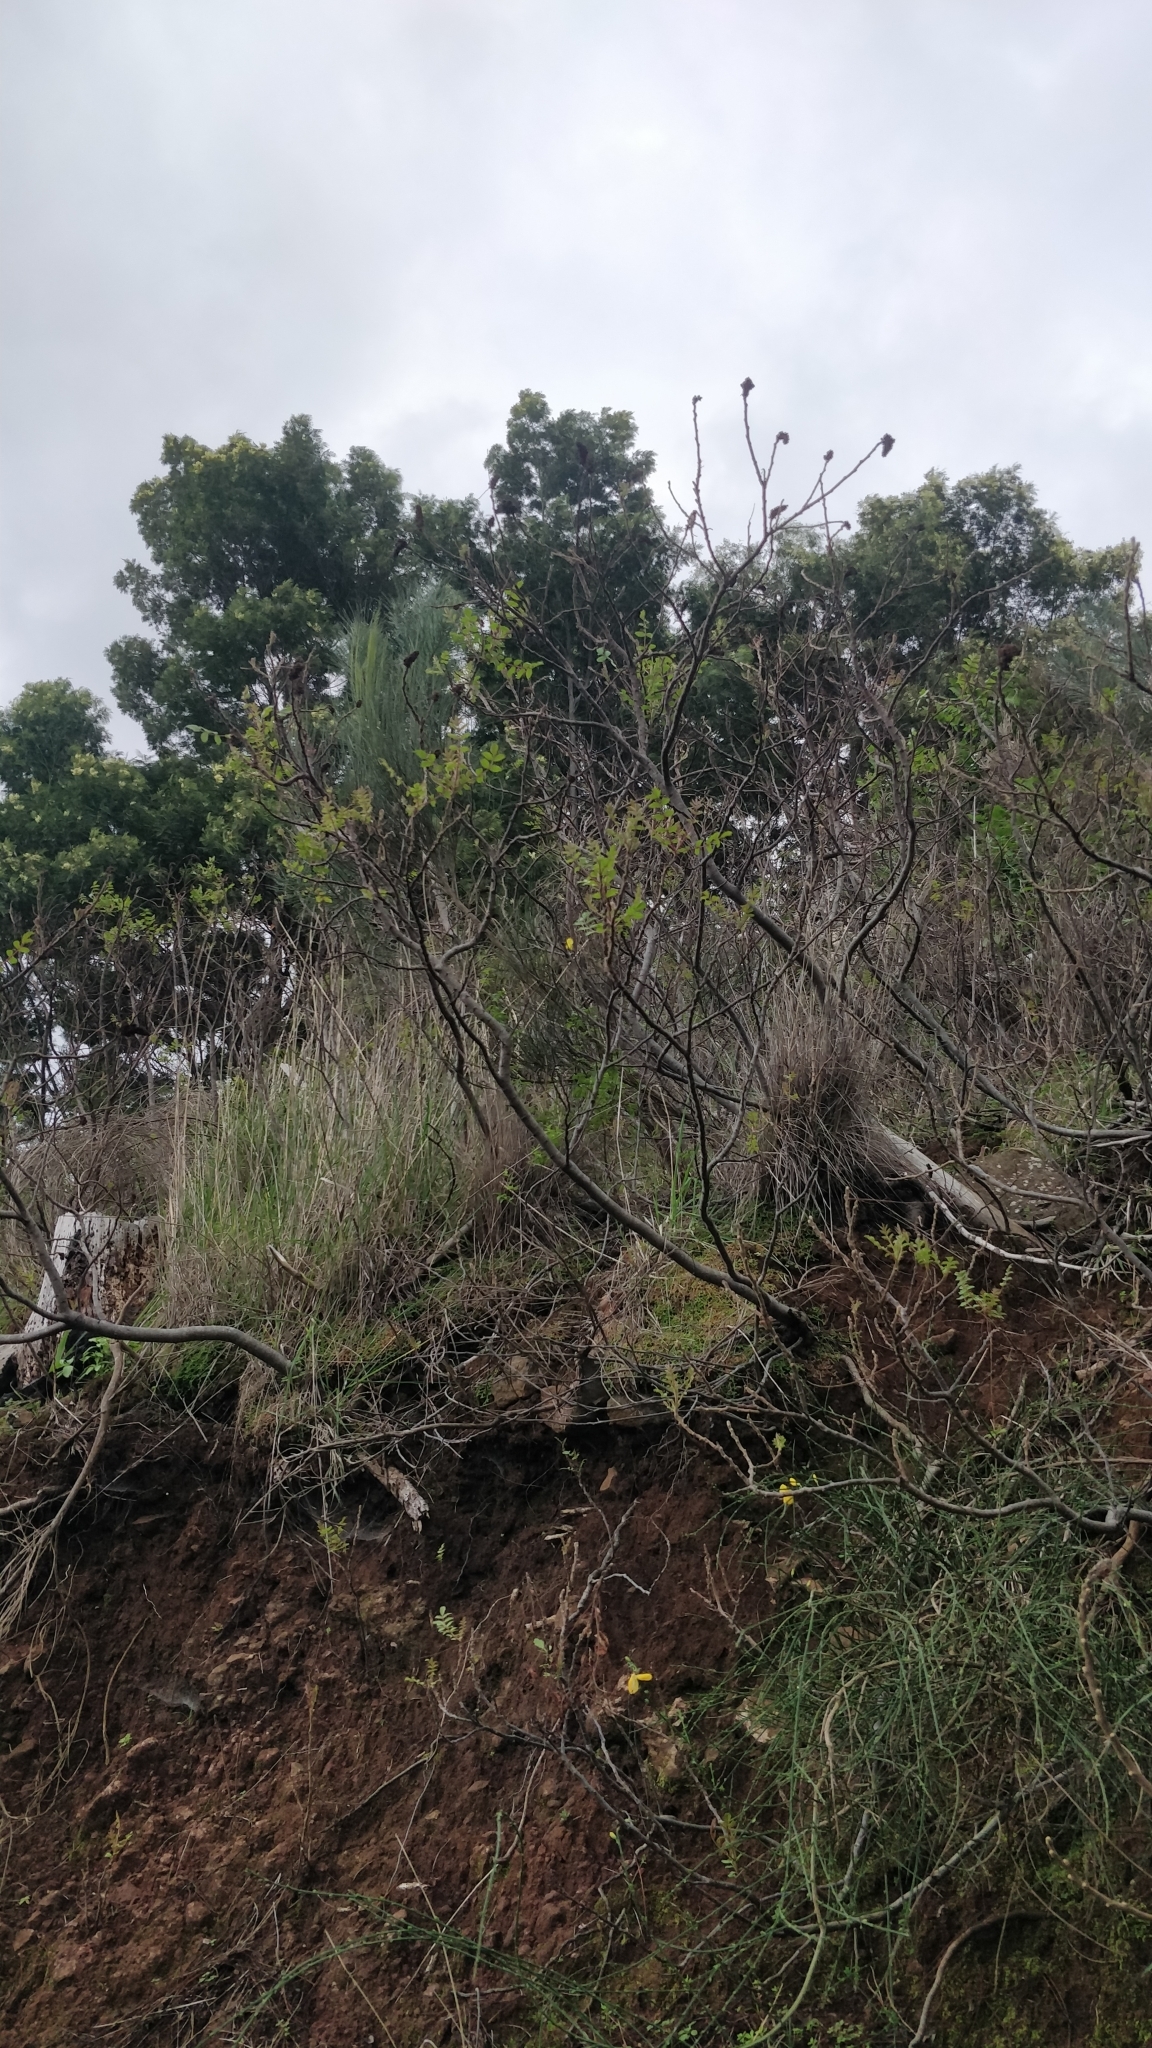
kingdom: Plantae
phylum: Tracheophyta
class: Magnoliopsida
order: Sapindales
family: Anacardiaceae
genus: Rhus
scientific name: Rhus coriaria
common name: Tanner's sumach
